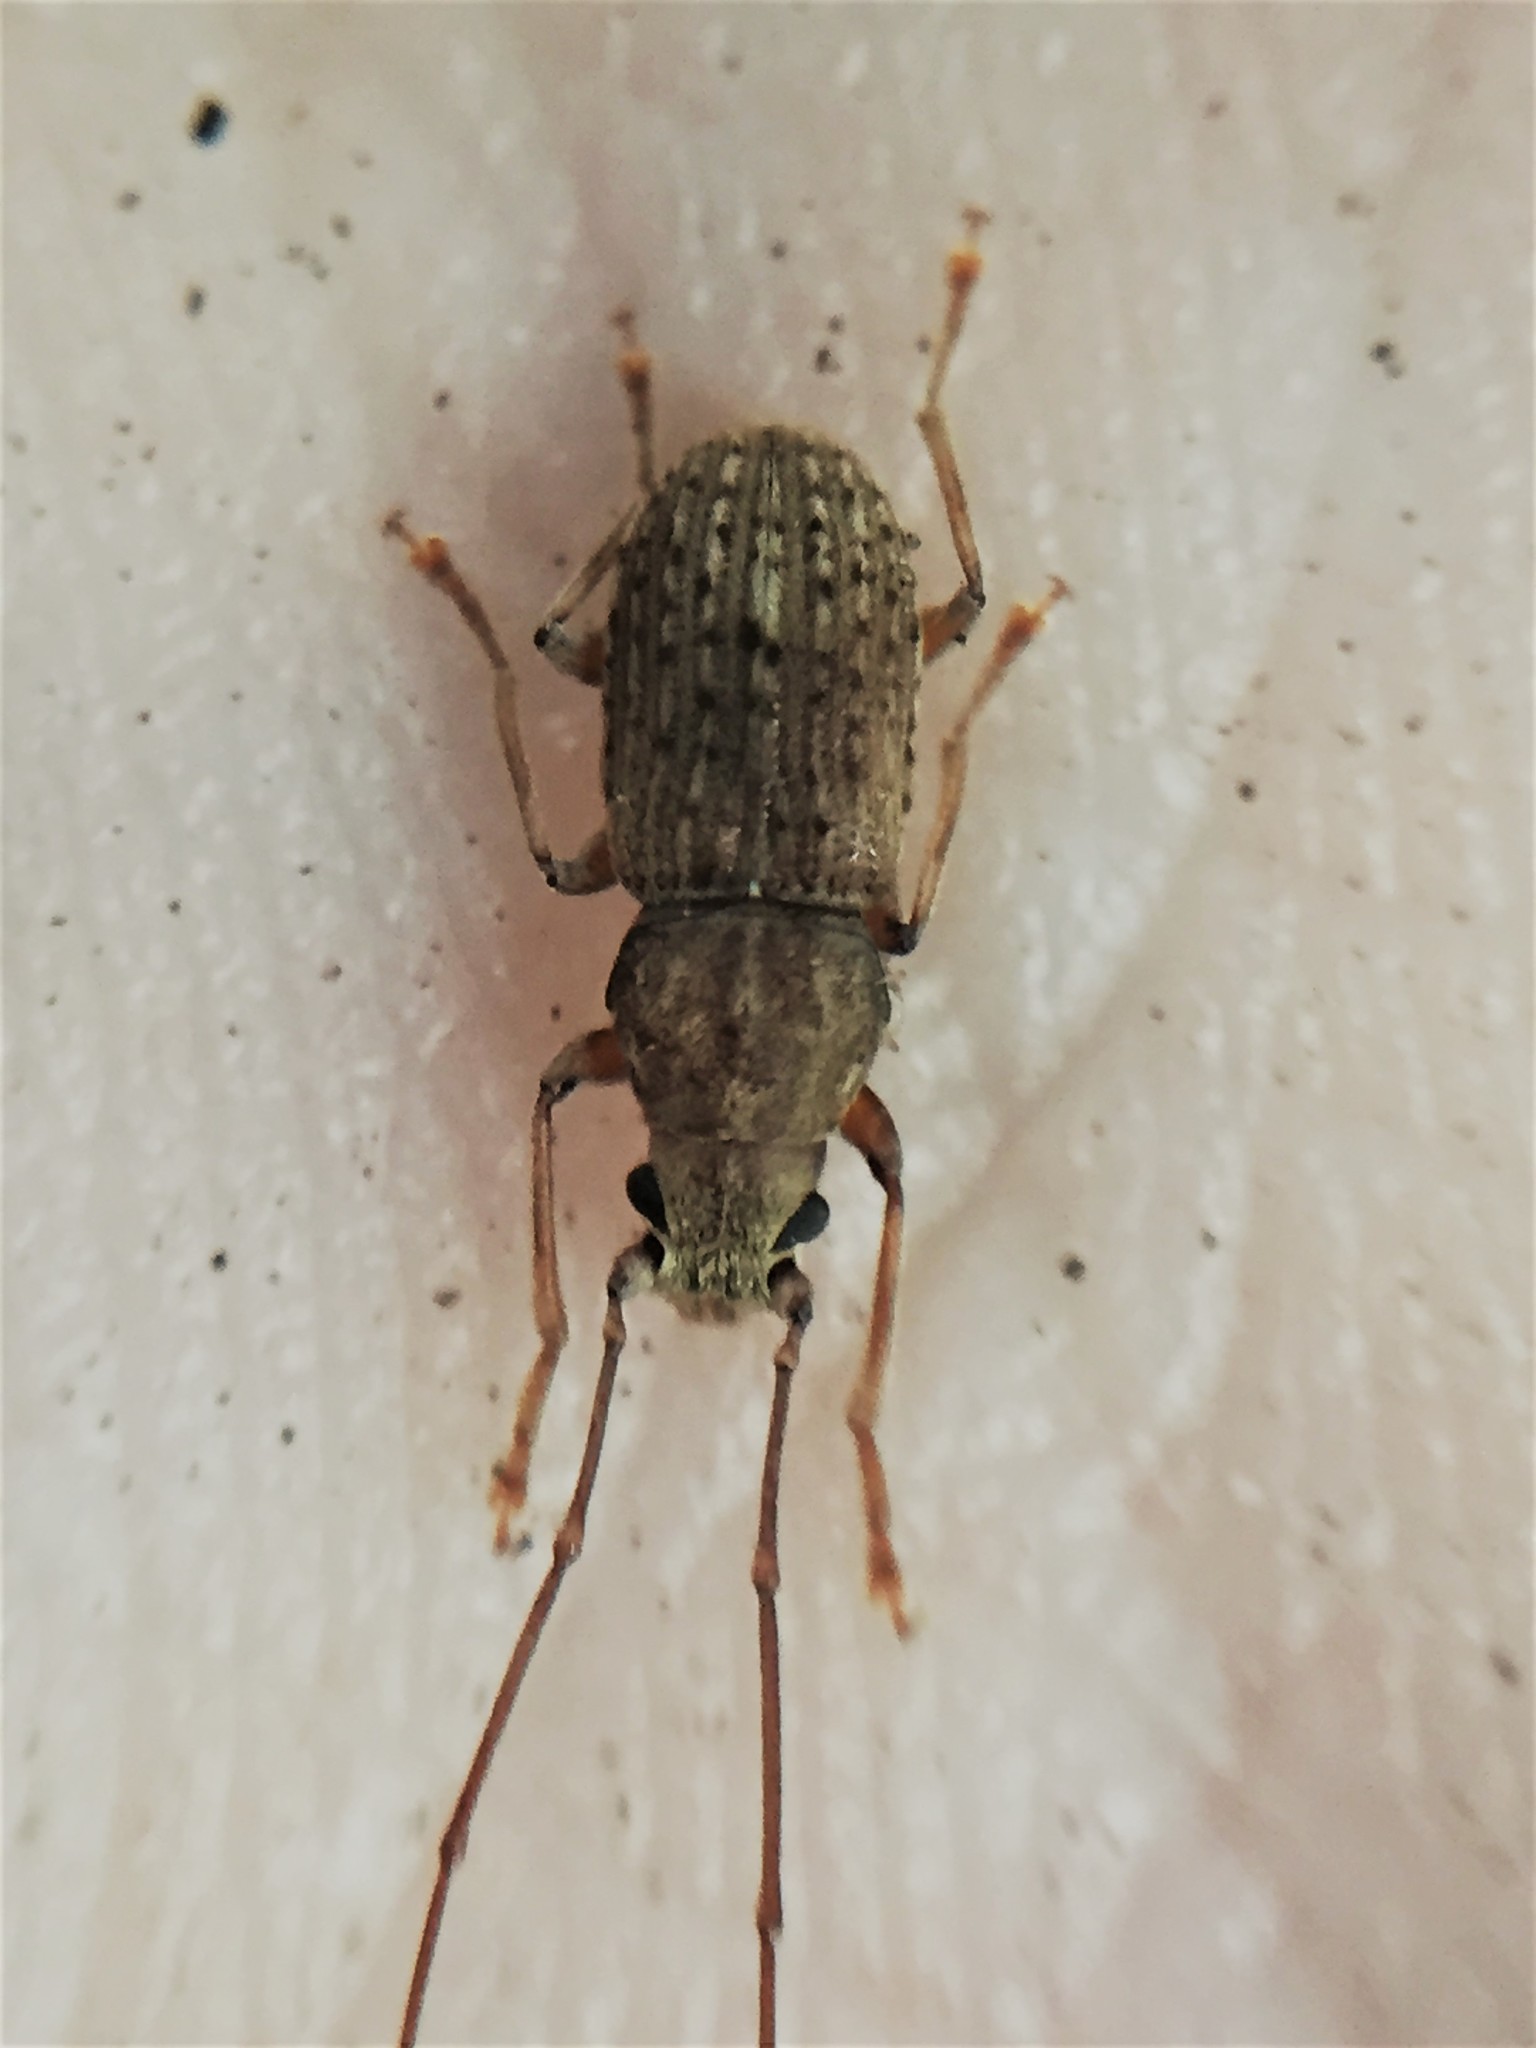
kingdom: Animalia
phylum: Arthropoda
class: Insecta
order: Coleoptera
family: Anthribidae
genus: Arecopais
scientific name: Arecopais spectabilis
